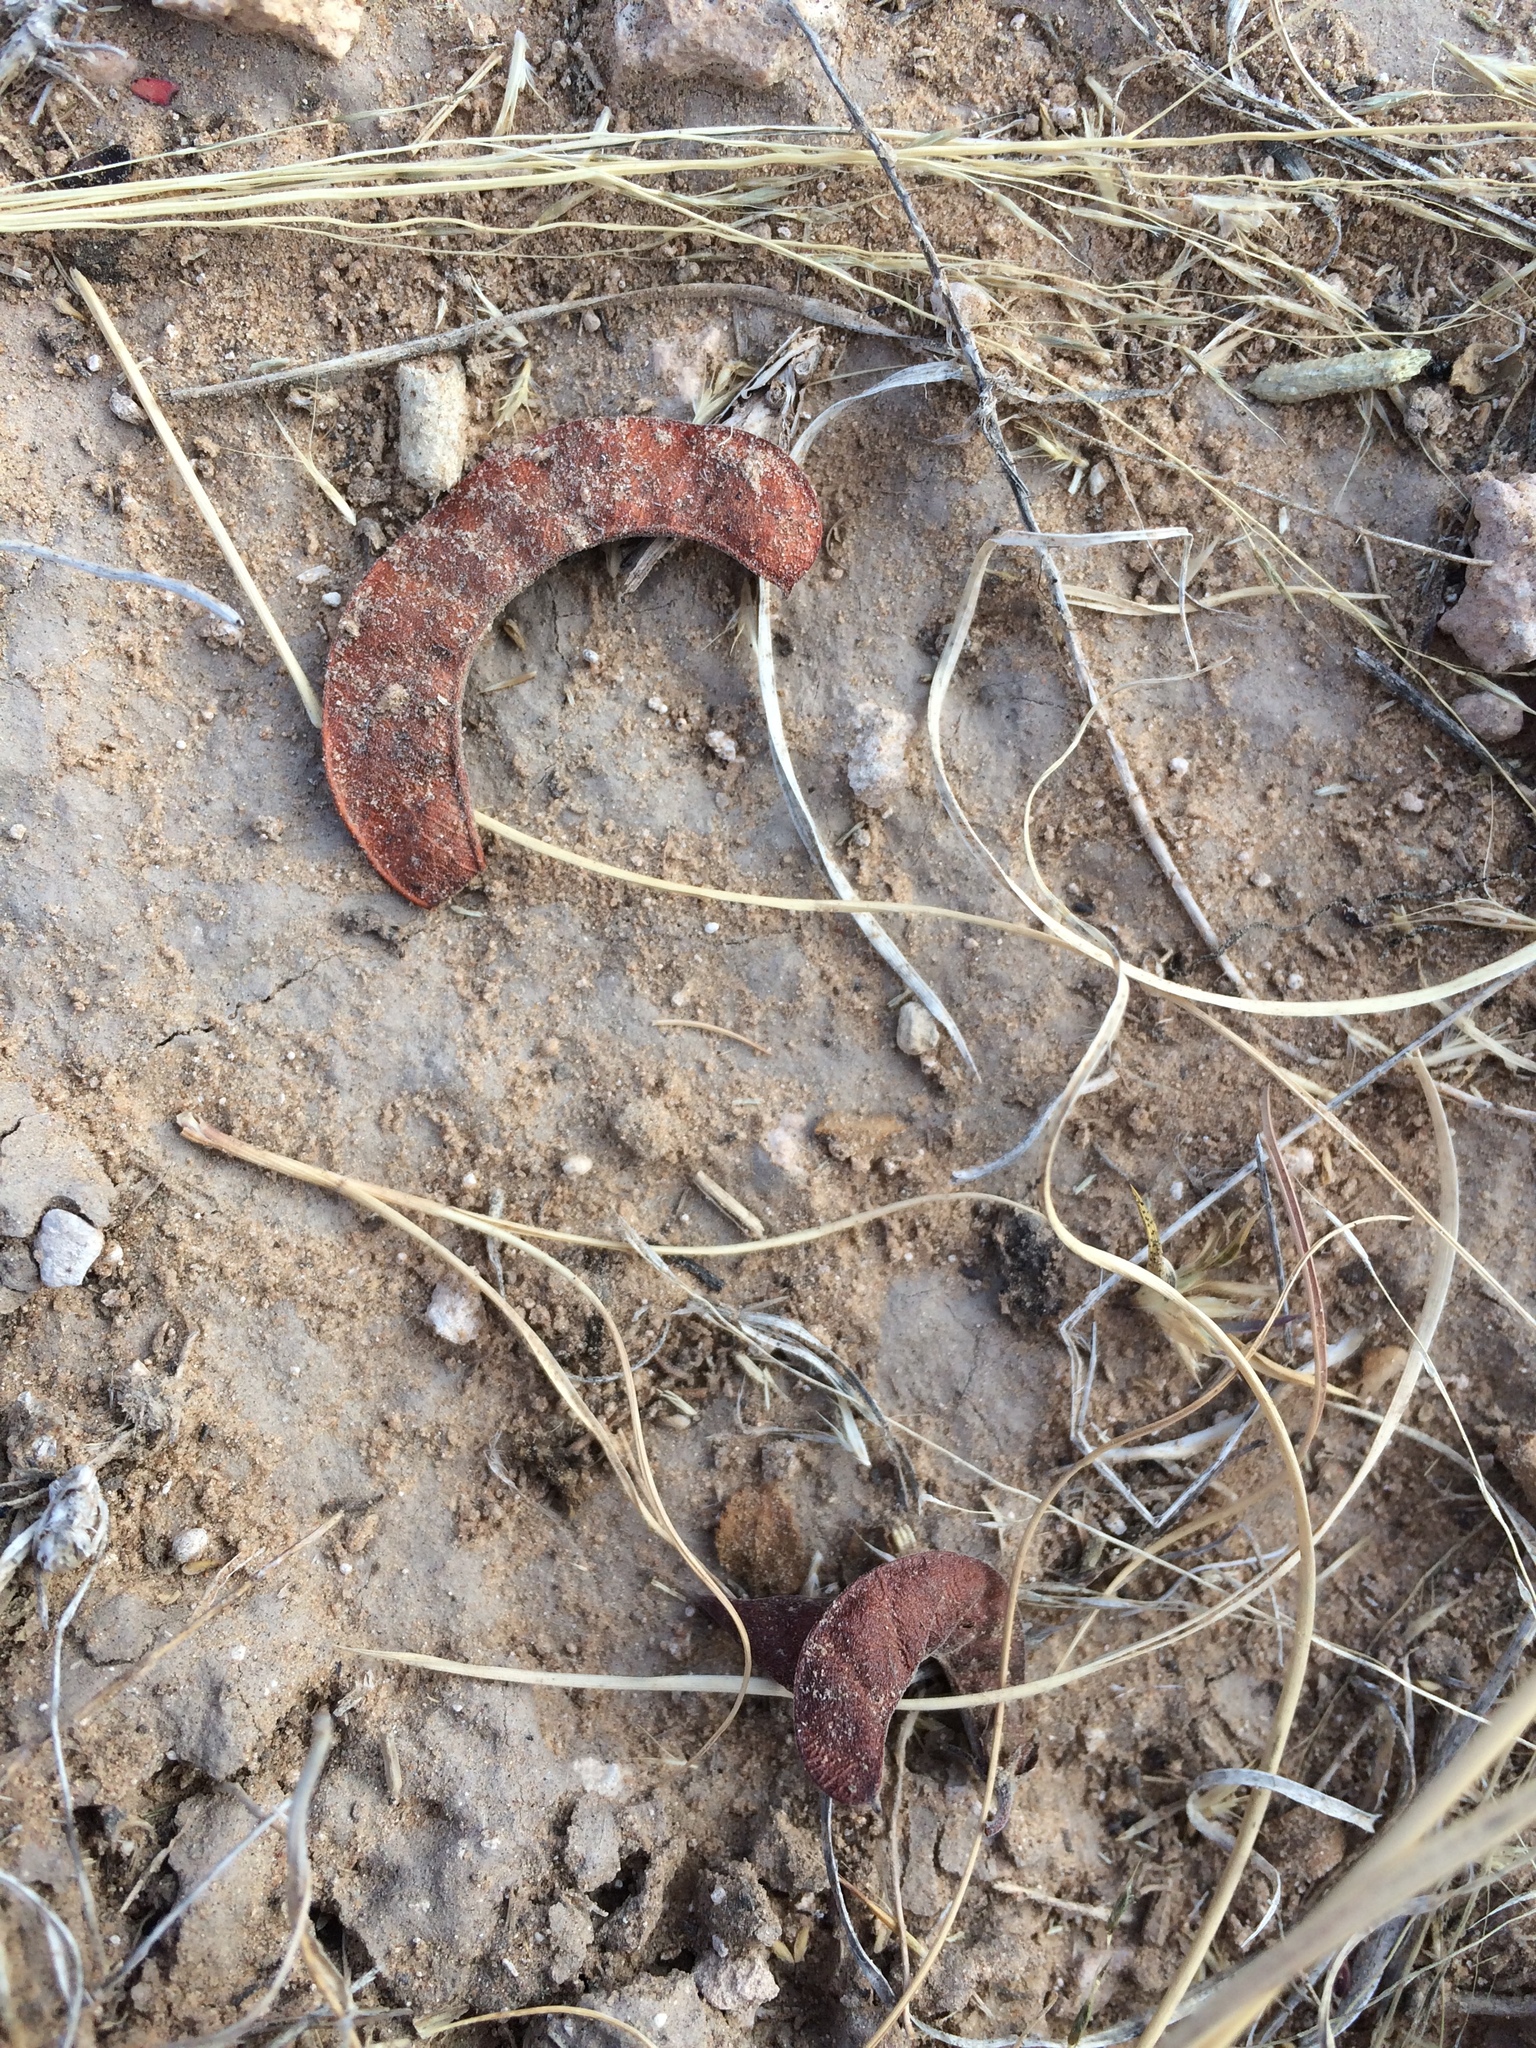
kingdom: Plantae
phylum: Tracheophyta
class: Magnoliopsida
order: Fabales
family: Fabaceae
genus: Hoffmannseggia
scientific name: Hoffmannseggia drepanocarpa
